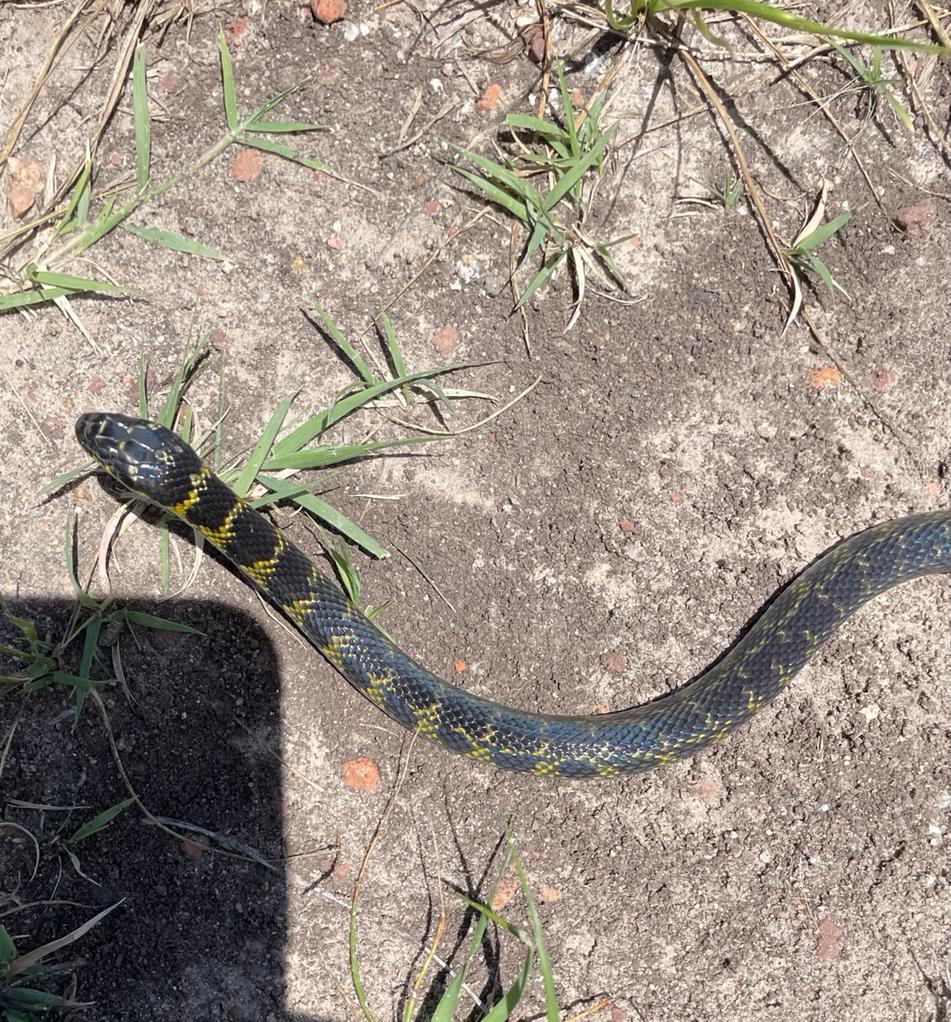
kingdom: Animalia
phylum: Chordata
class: Squamata
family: Colubridae
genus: Erythrolamprus
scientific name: Erythrolamprus poecilogyrus
